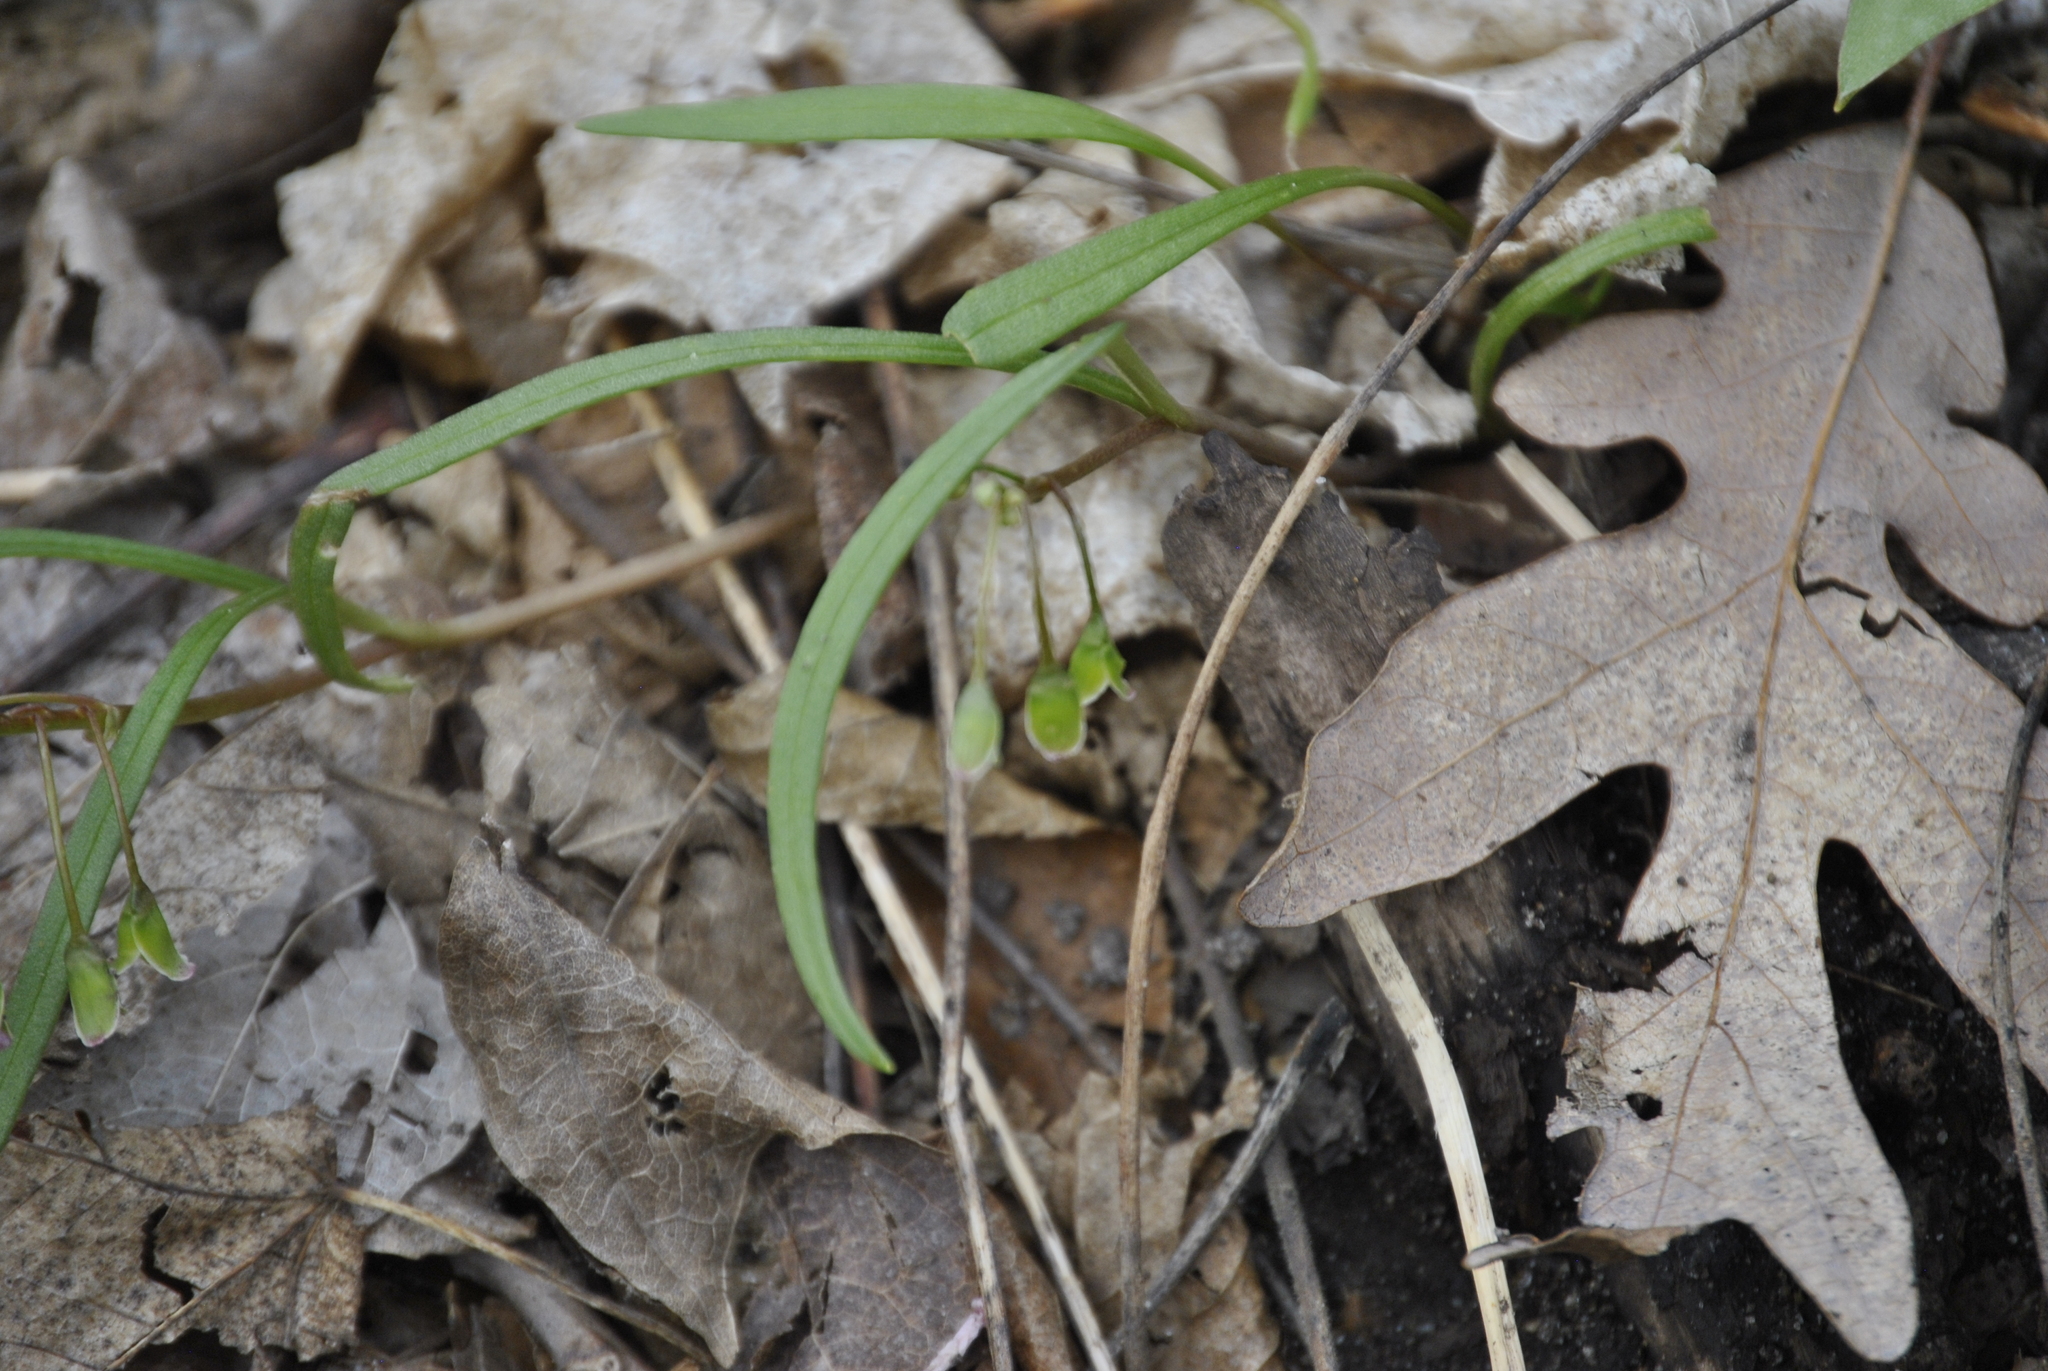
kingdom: Plantae
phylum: Tracheophyta
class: Magnoliopsida
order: Caryophyllales
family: Montiaceae
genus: Claytonia
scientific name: Claytonia virginica
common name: Virginia springbeauty
